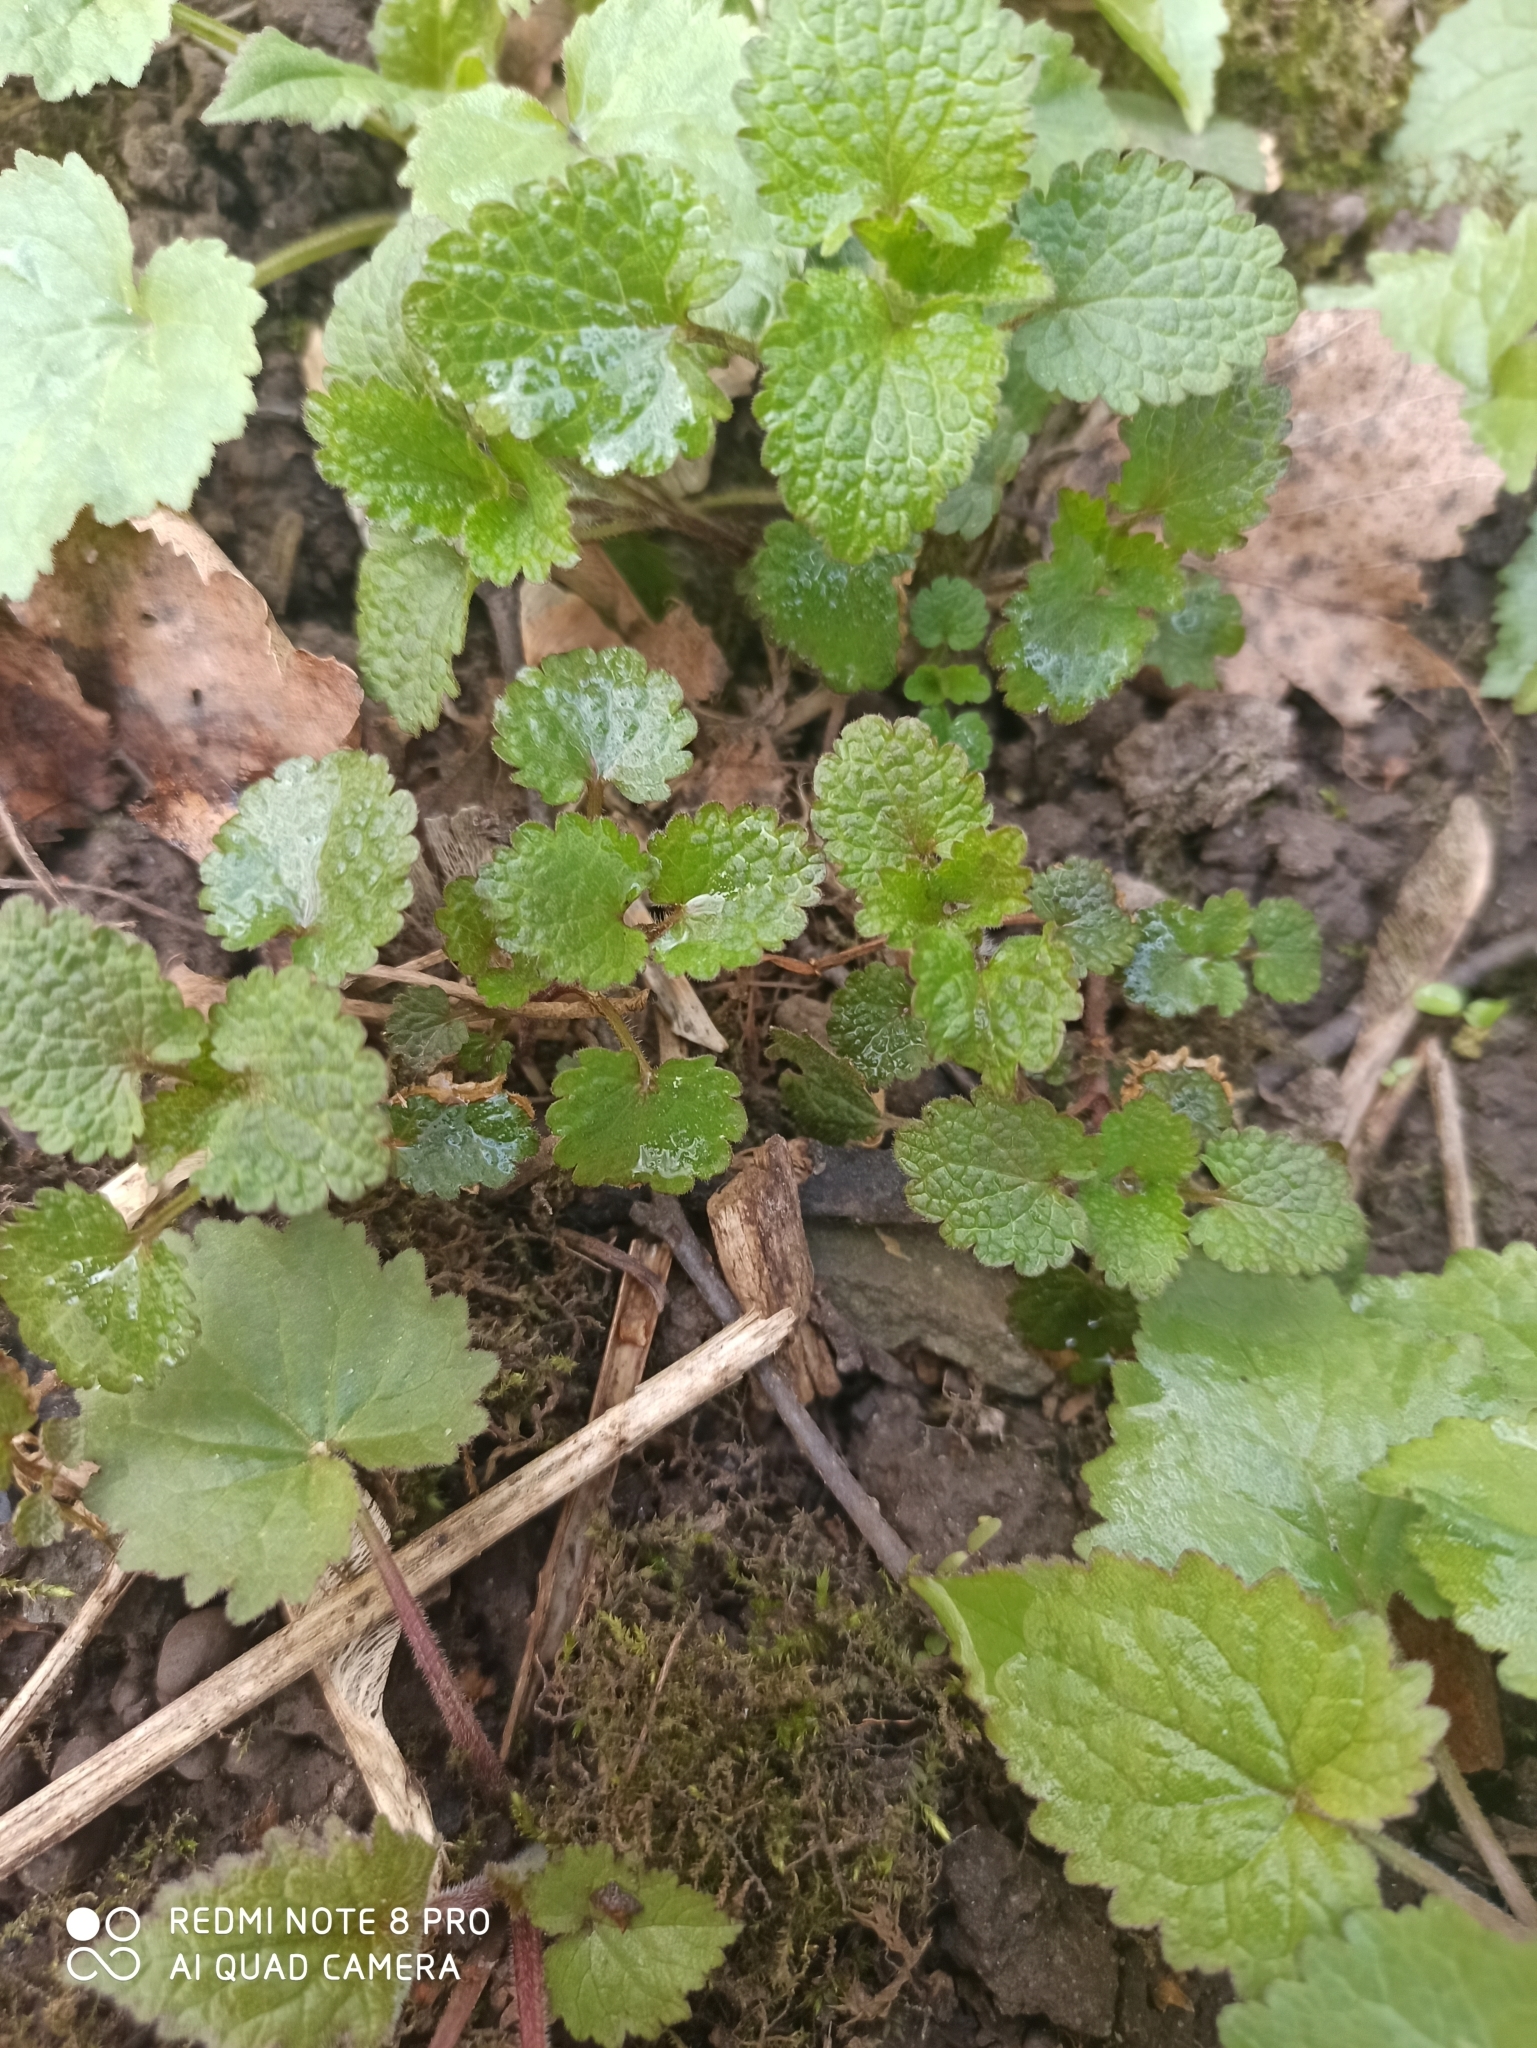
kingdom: Plantae
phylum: Tracheophyta
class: Magnoliopsida
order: Lamiales
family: Lamiaceae
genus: Glechoma
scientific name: Glechoma hederacea
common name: Ground ivy
